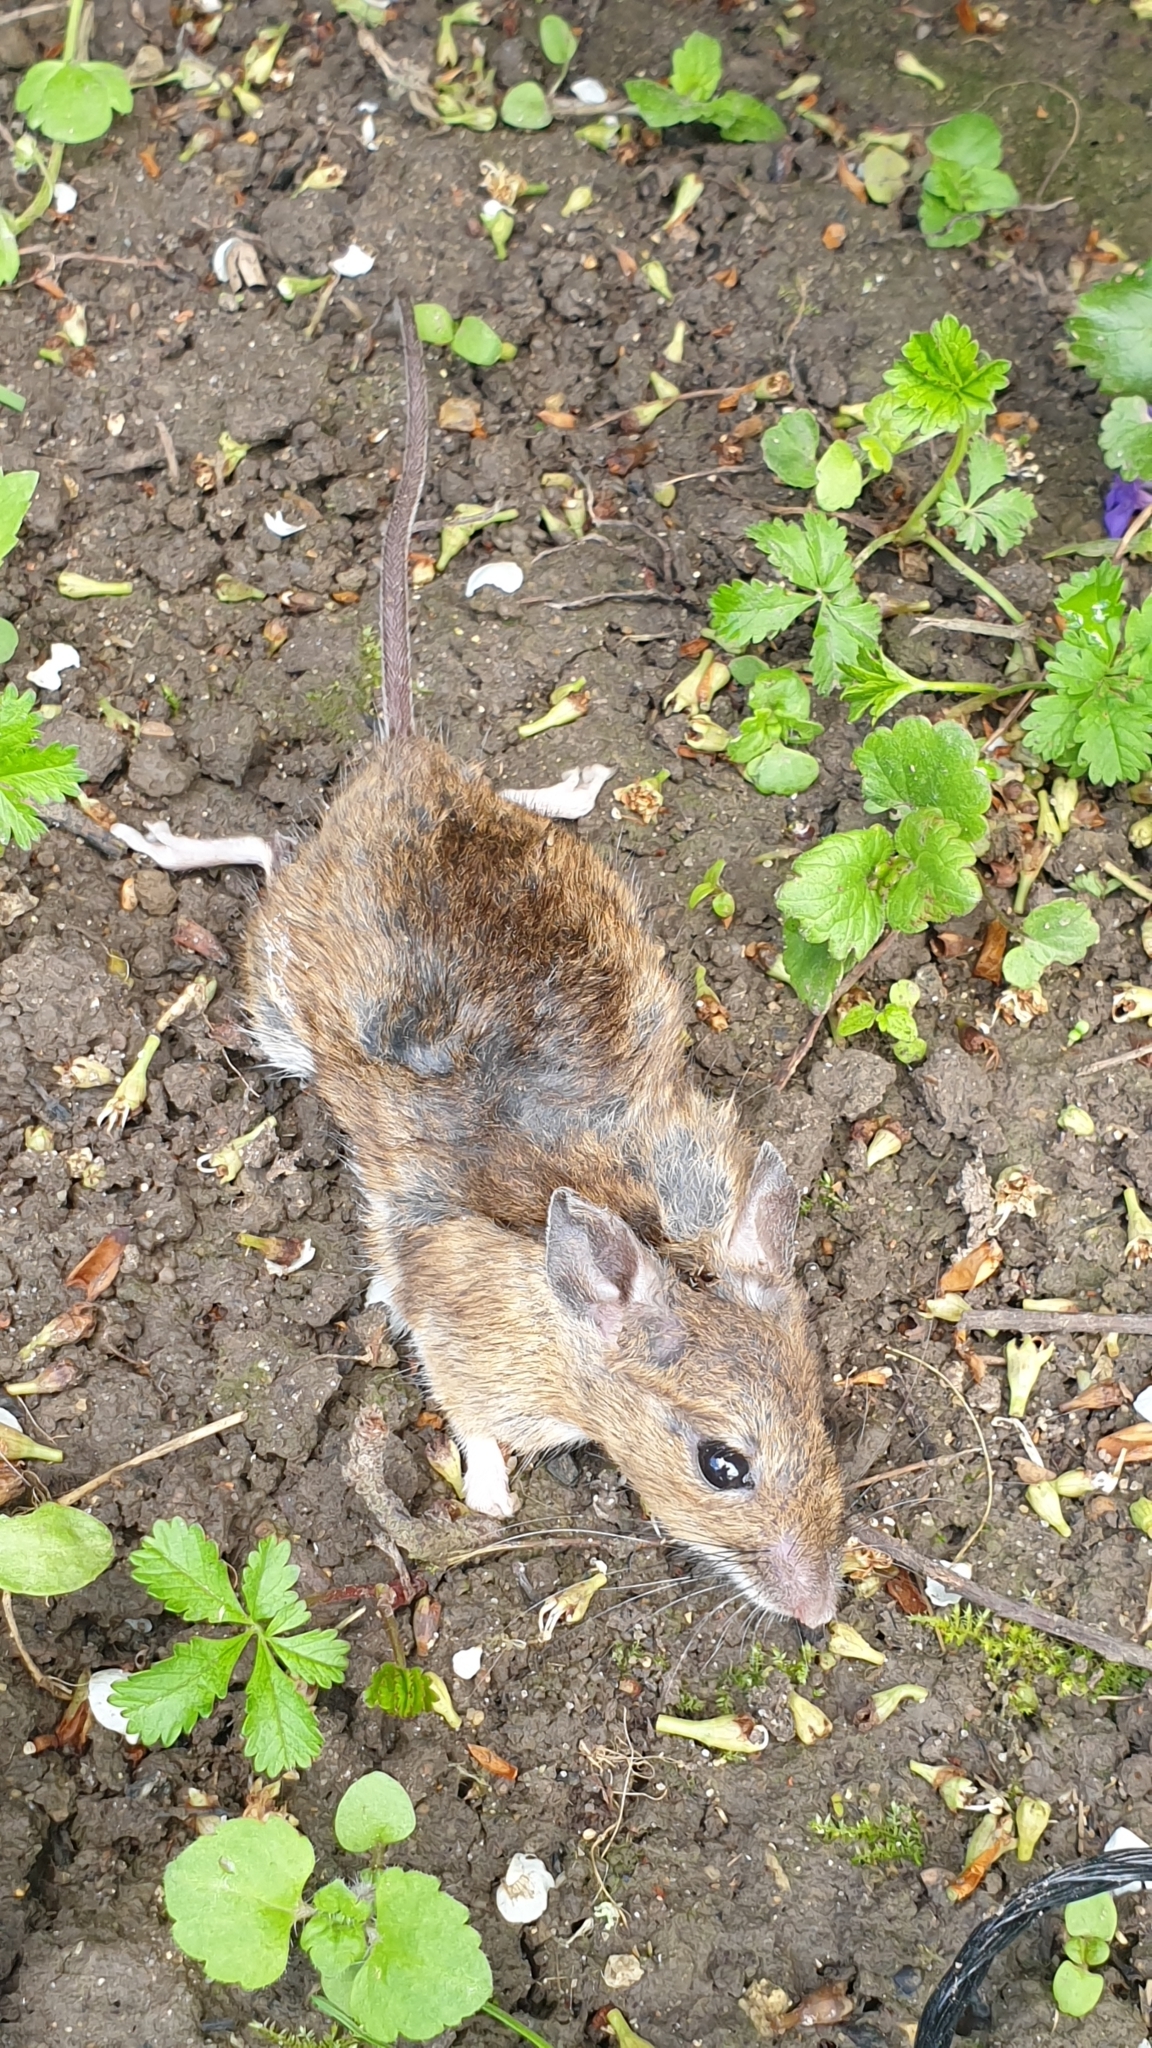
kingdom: Animalia
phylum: Chordata
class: Mammalia
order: Rodentia
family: Muridae
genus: Apodemus
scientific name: Apodemus sylvaticus
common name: Wood mouse
